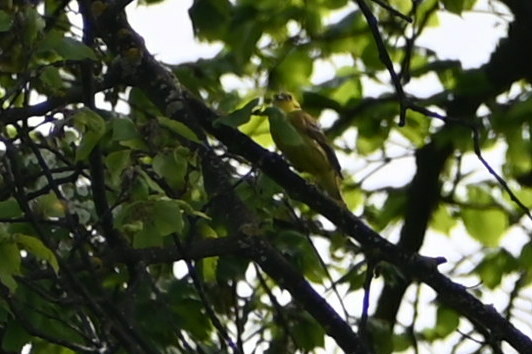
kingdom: Animalia
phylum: Chordata
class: Aves
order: Passeriformes
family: Emberizidae
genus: Emberiza
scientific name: Emberiza citrinella
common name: Yellowhammer
